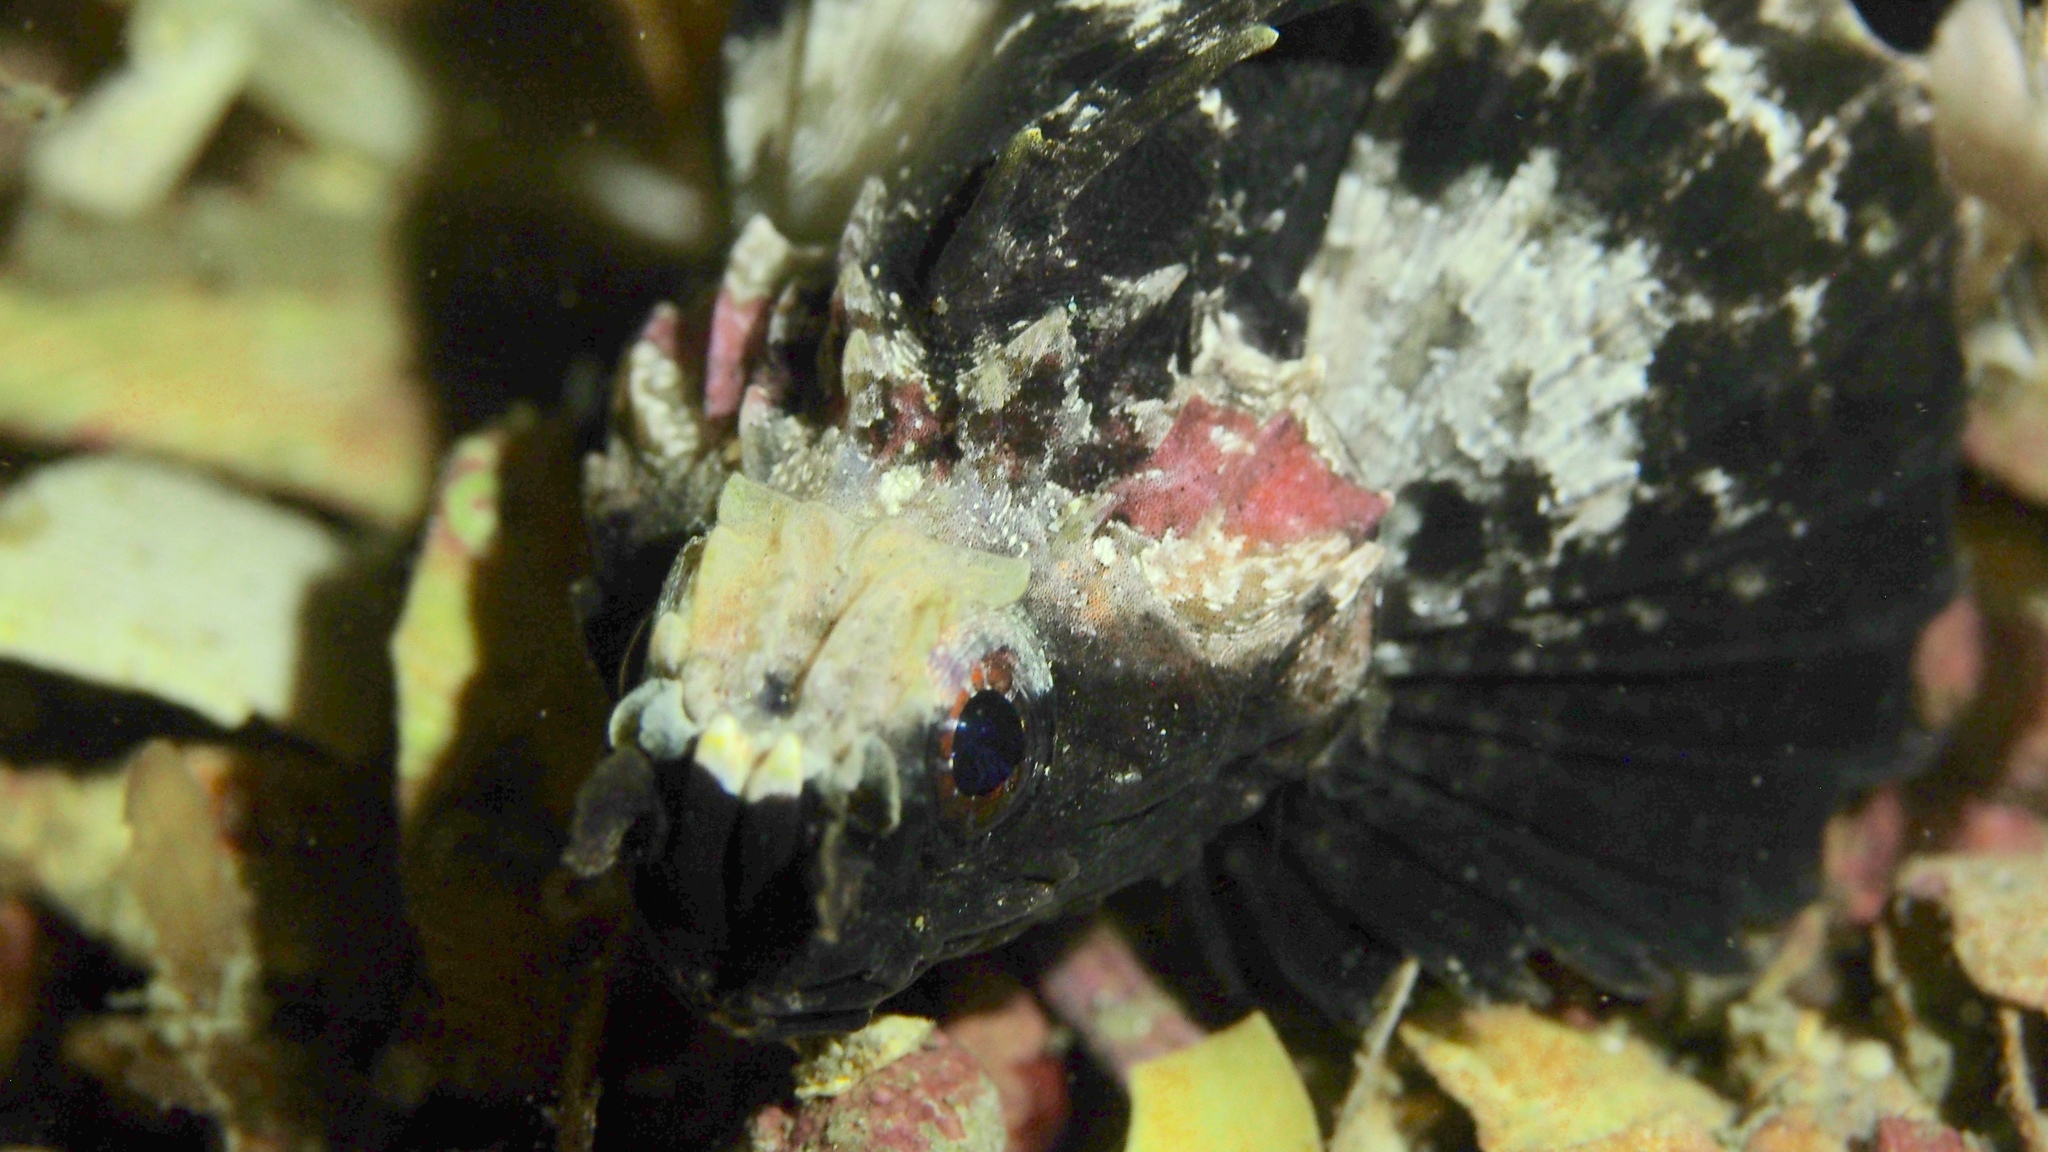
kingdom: Animalia
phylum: Chordata
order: Scorpaeniformes
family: Tetrarogidae
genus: Glyptauchen
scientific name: Glyptauchen panduratus
